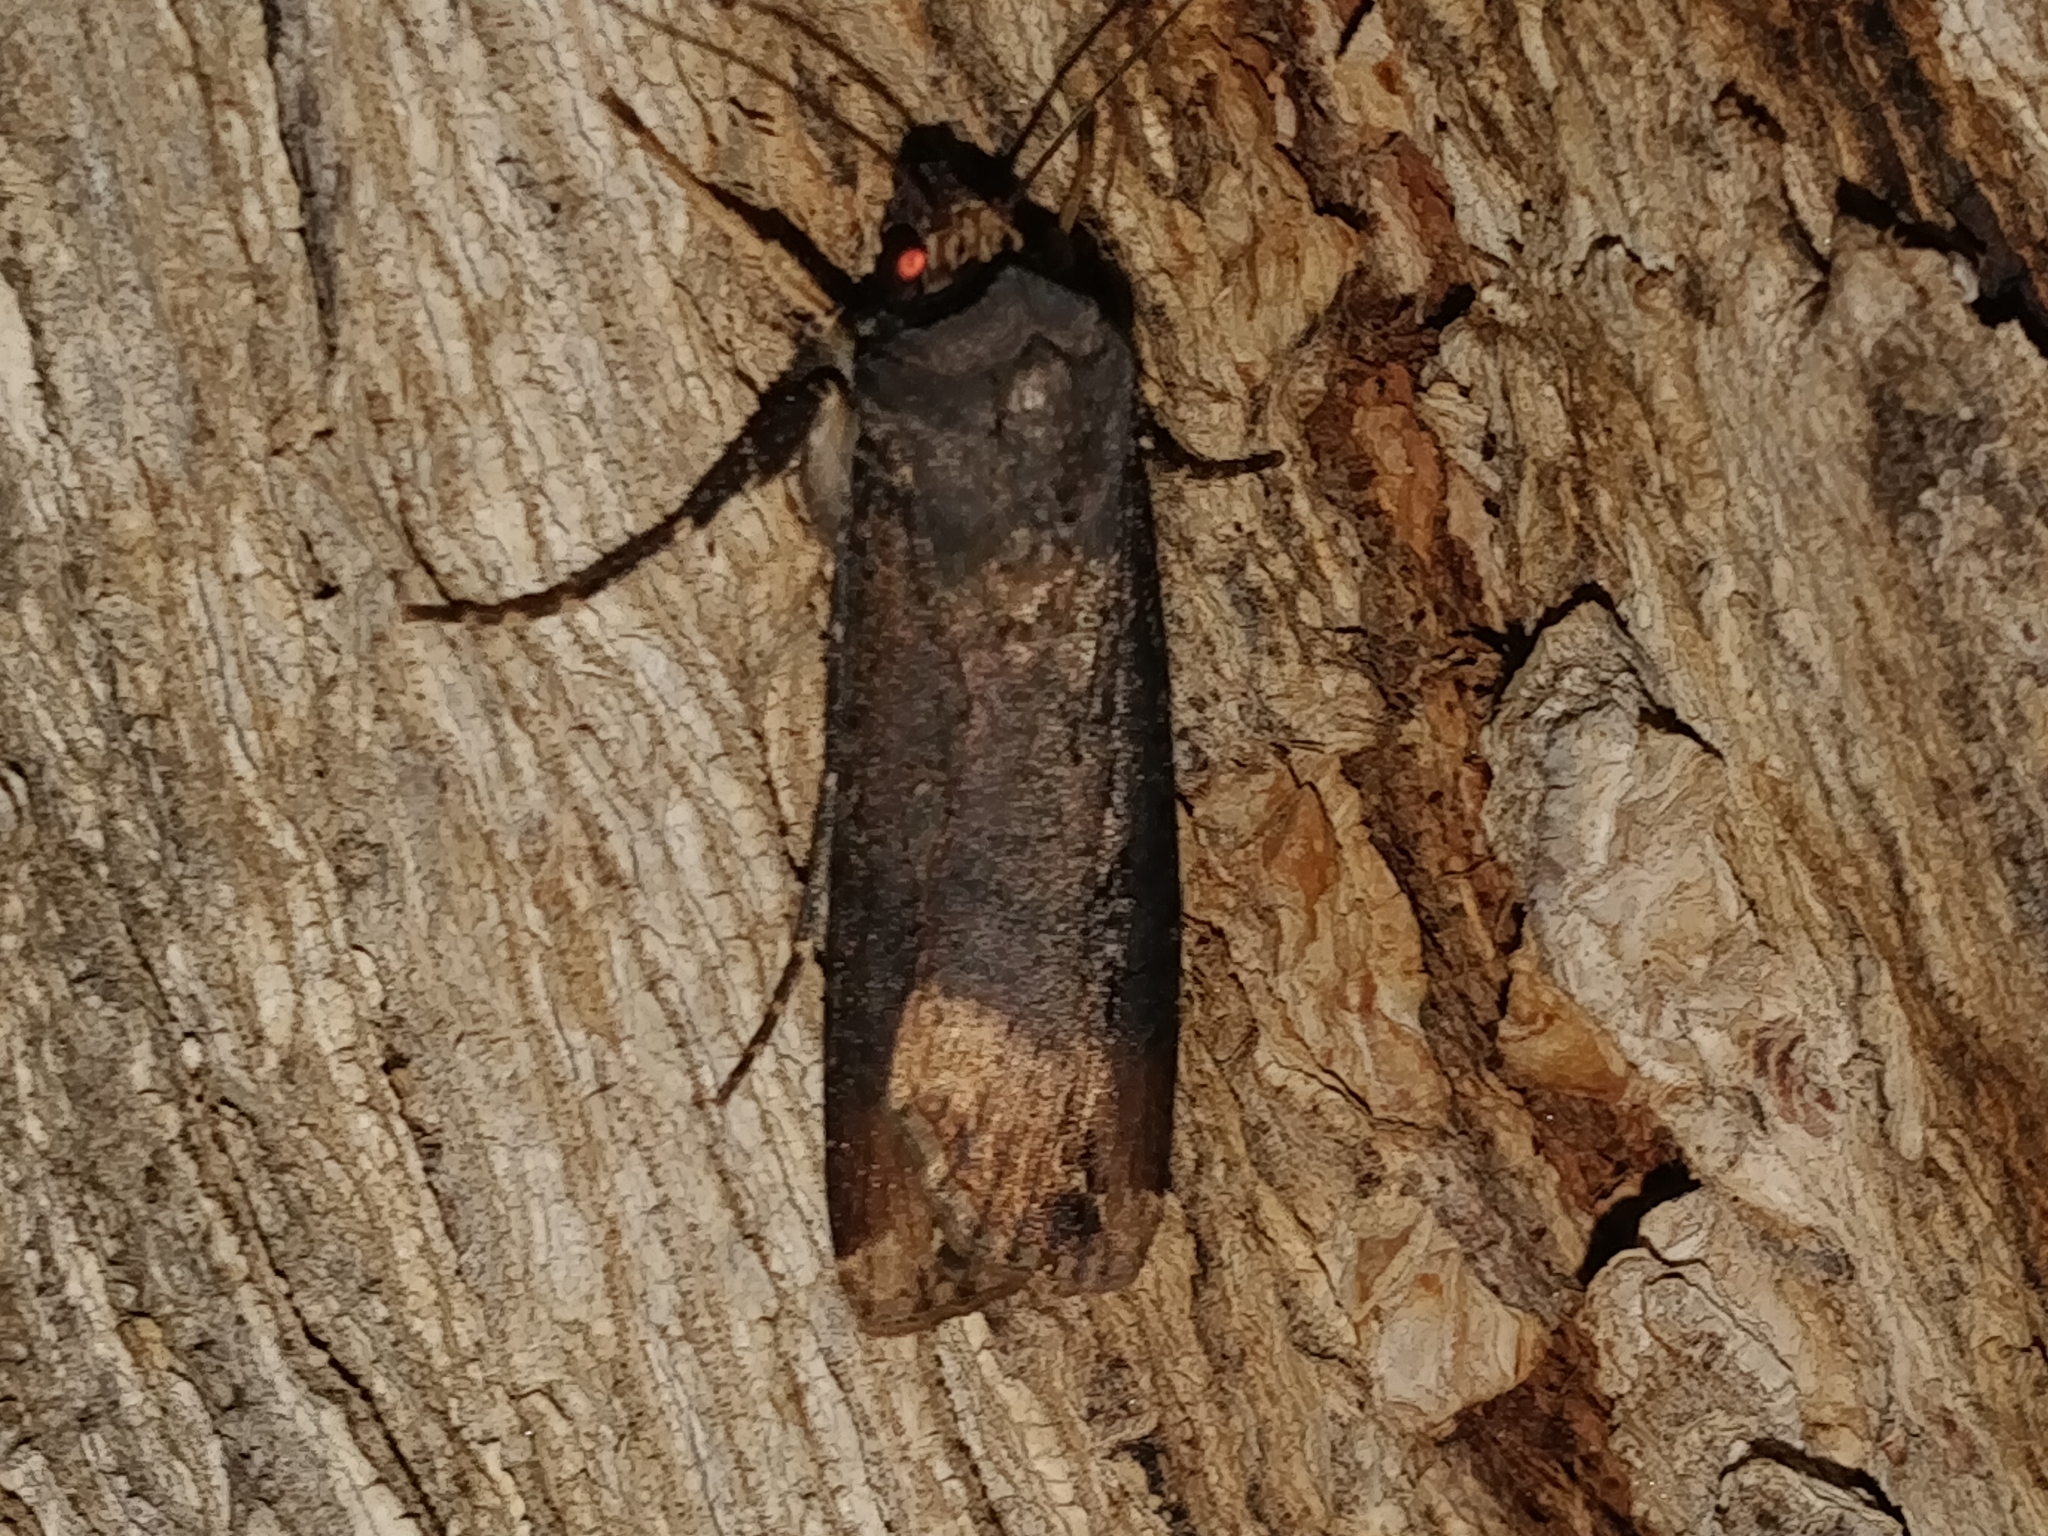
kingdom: Animalia
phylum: Arthropoda
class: Insecta
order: Lepidoptera
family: Noctuidae
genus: Agrotis
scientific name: Agrotis ipsilon
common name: Dark sword-grass
